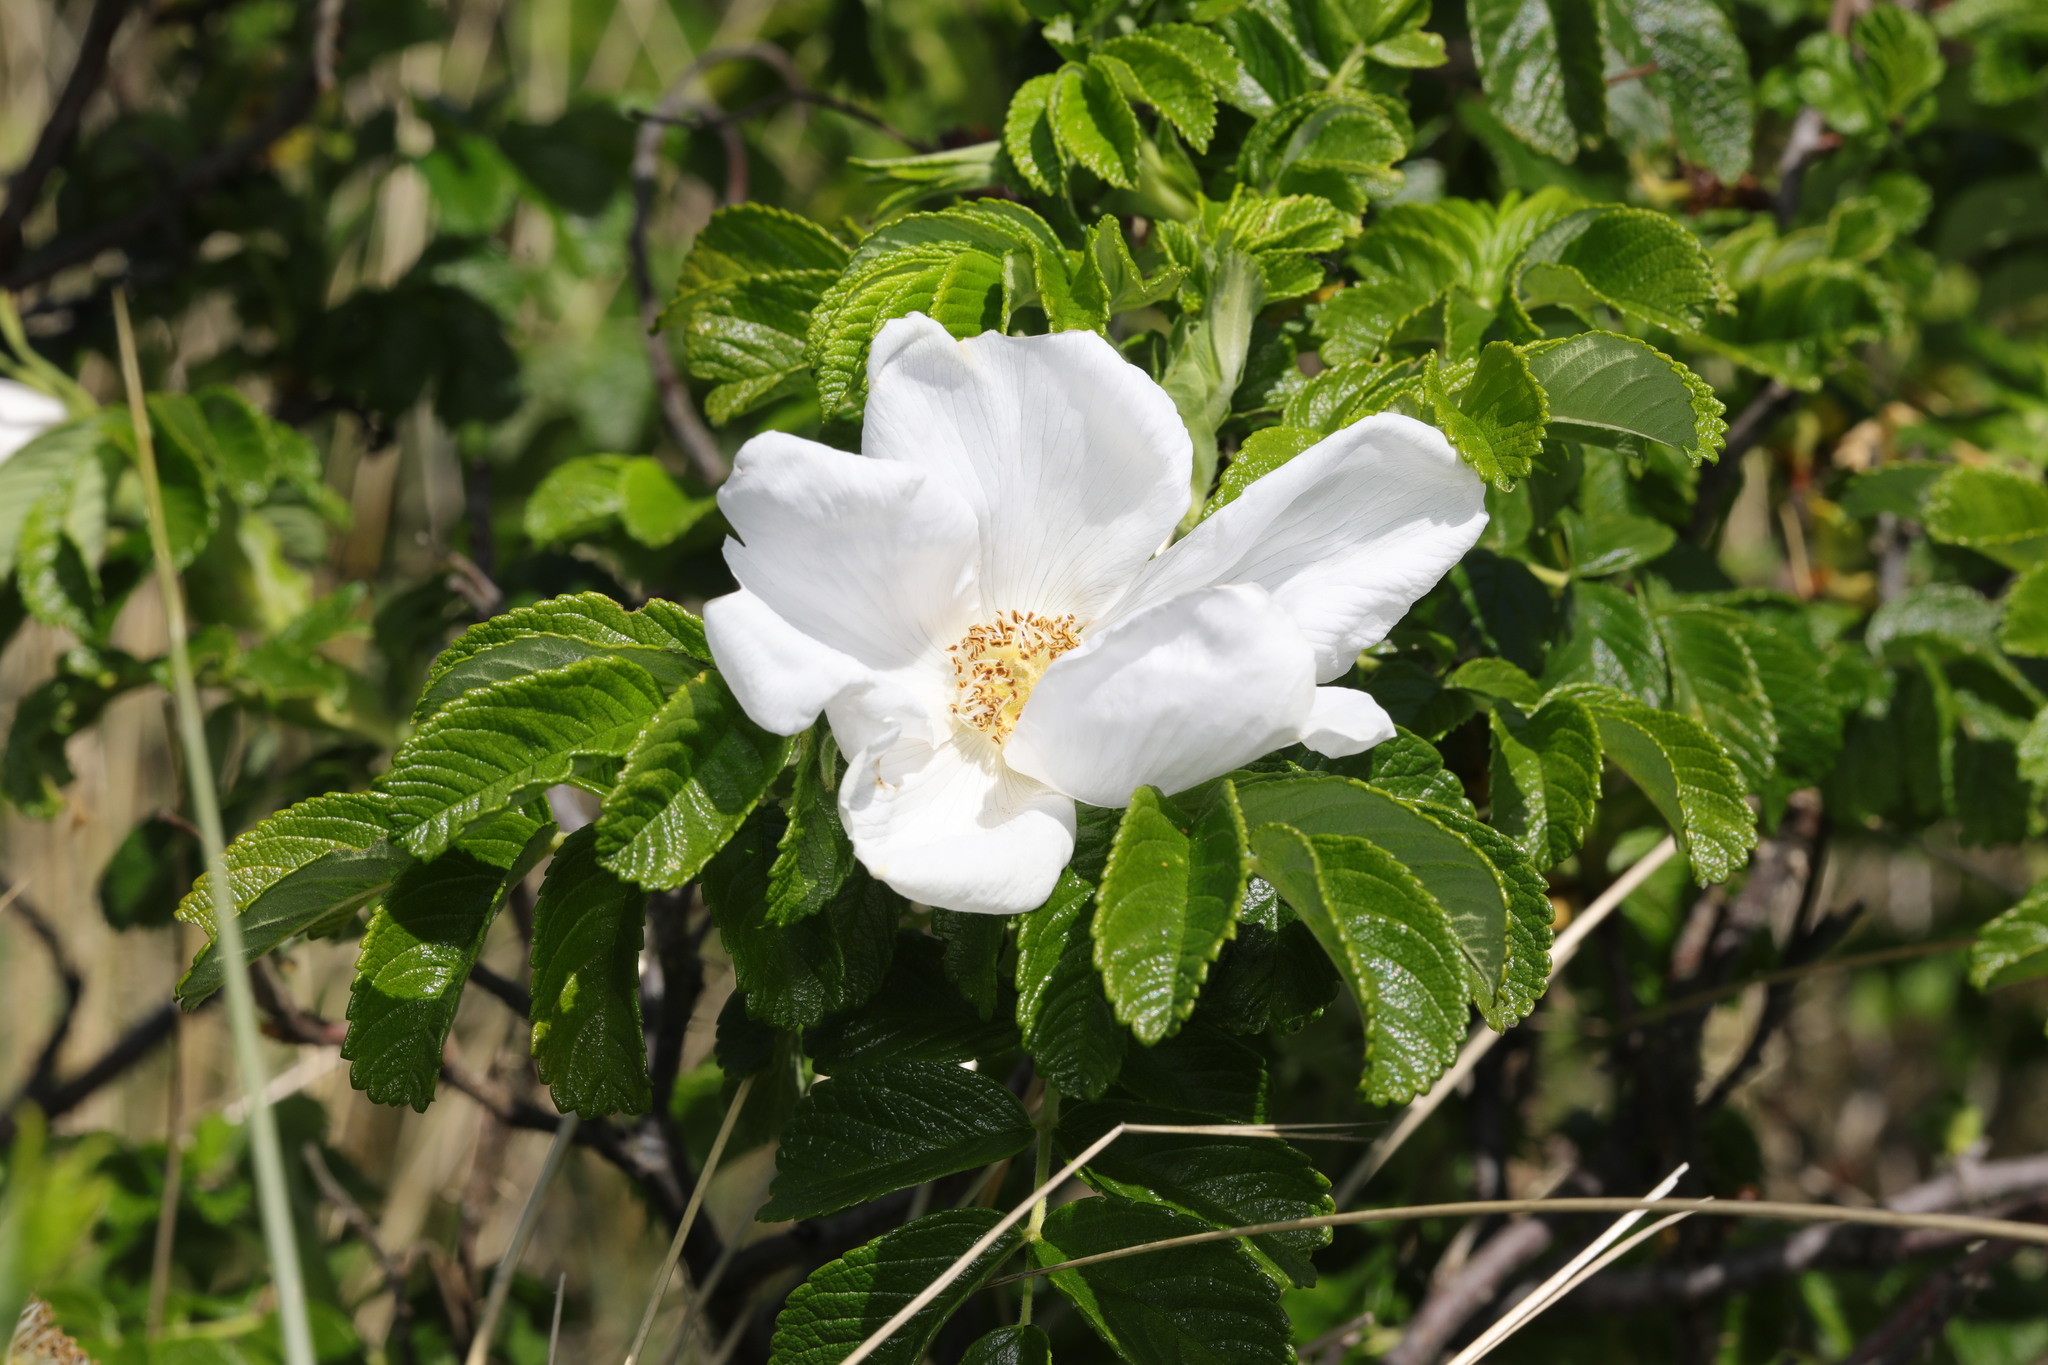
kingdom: Plantae
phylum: Tracheophyta
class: Magnoliopsida
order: Rosales
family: Rosaceae
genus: Rosa
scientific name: Rosa rugosa
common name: Japanese rose
